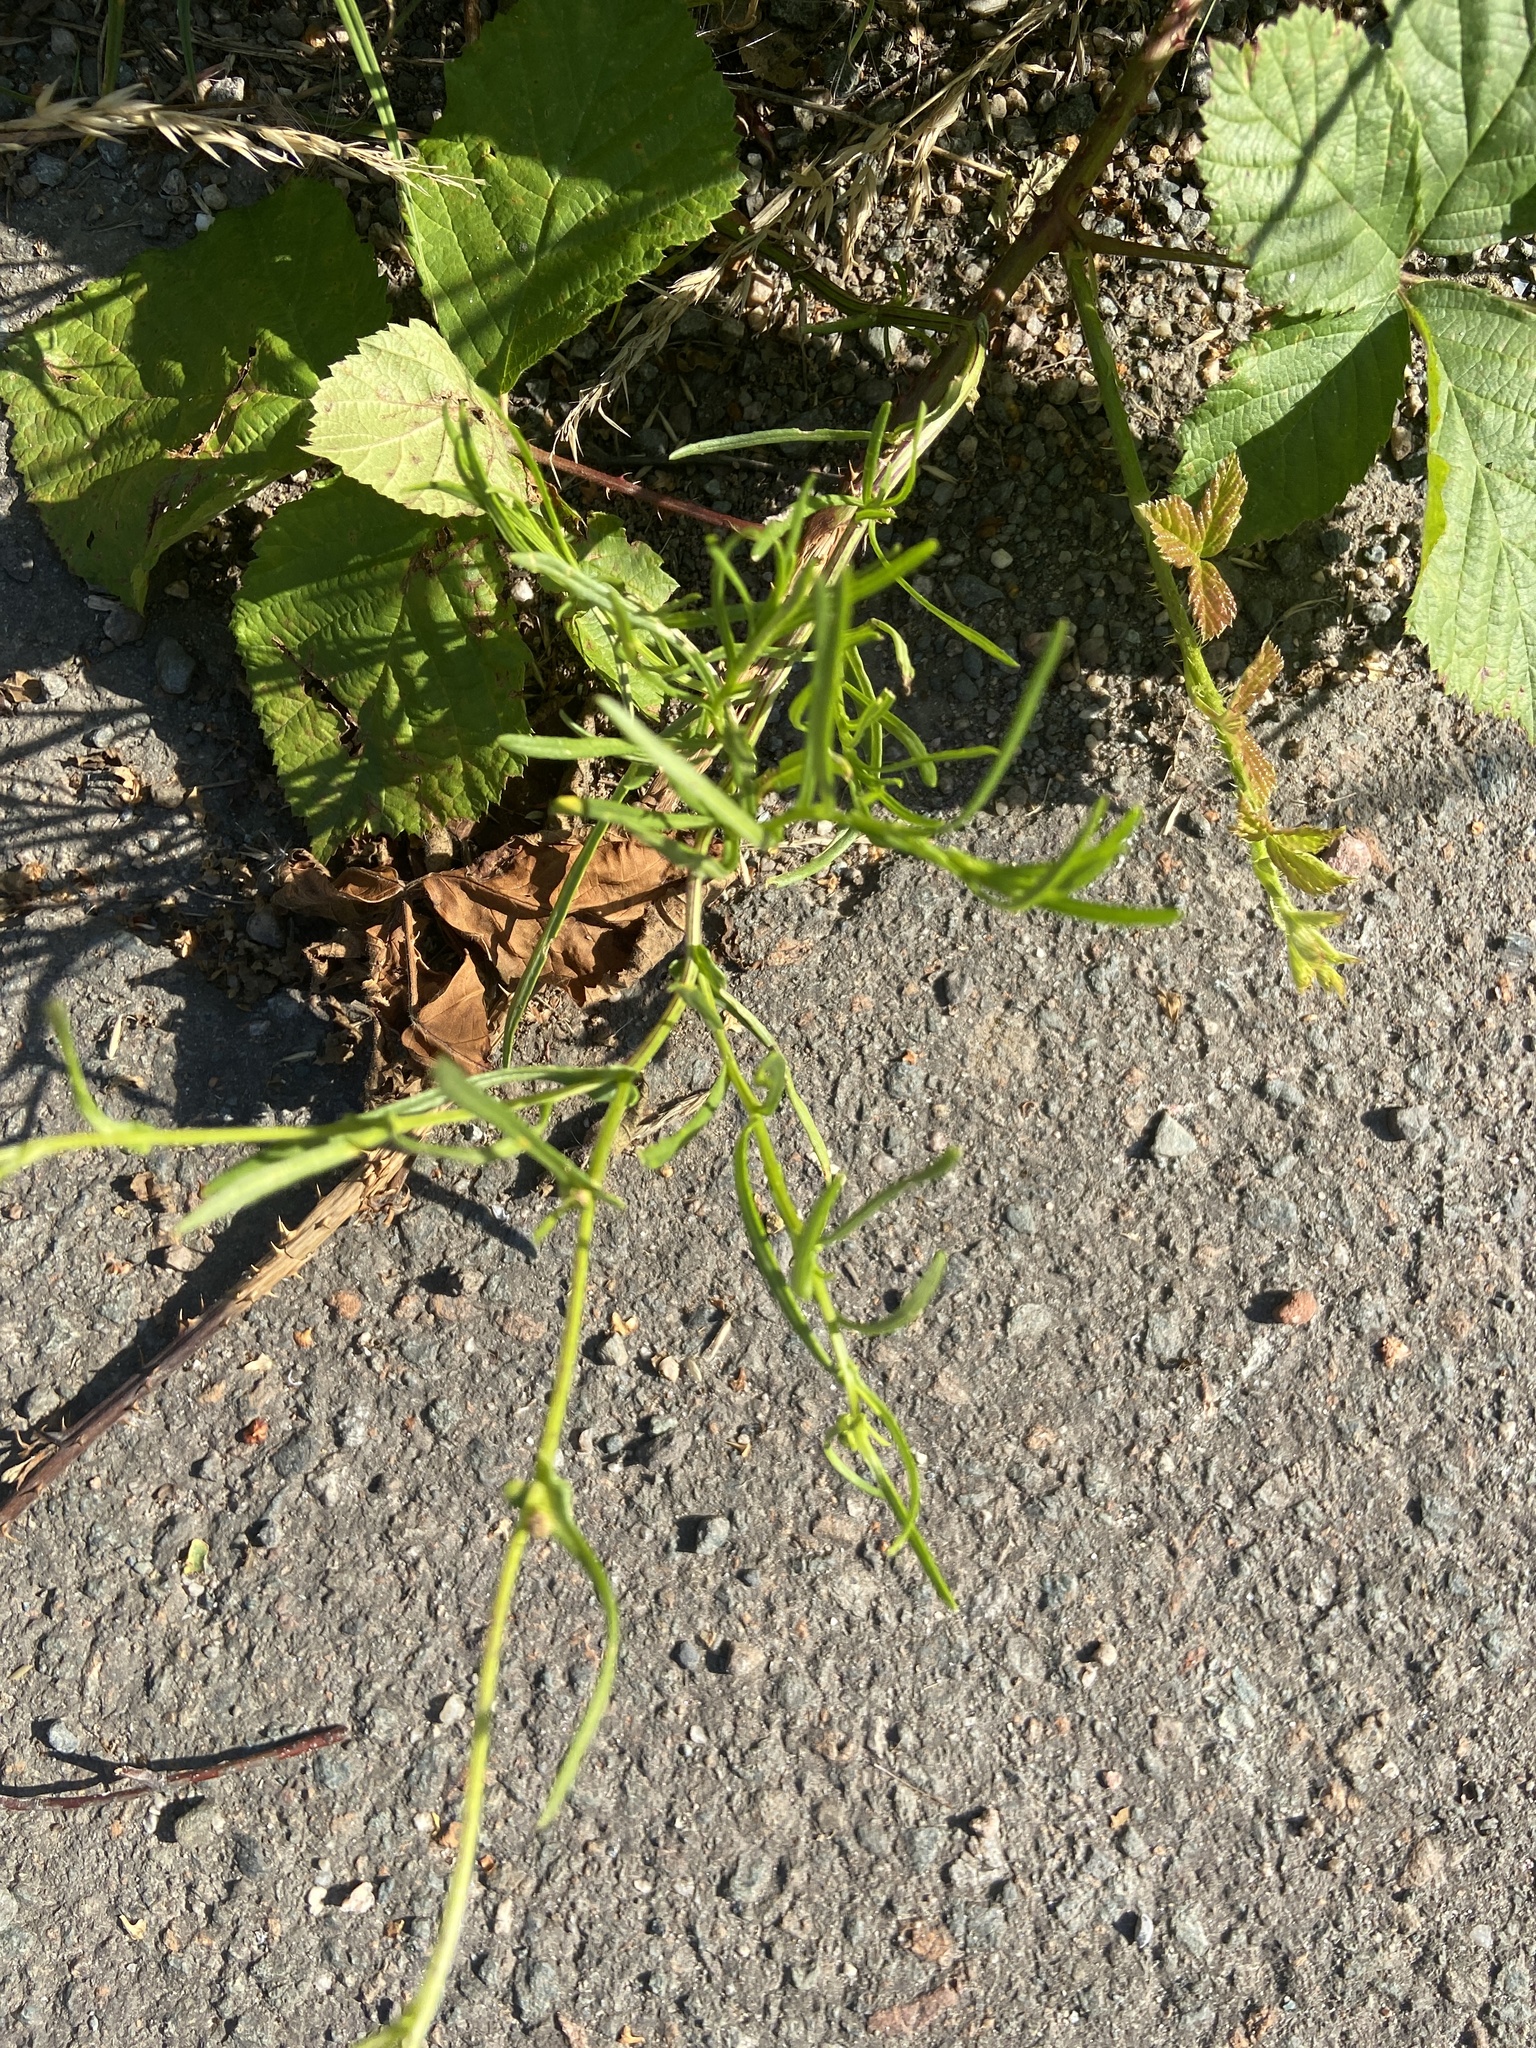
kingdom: Plantae
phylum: Tracheophyta
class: Magnoliopsida
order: Asterales
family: Asteraceae
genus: Senecio
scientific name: Senecio inaequidens
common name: Narrow-leaved ragwort
